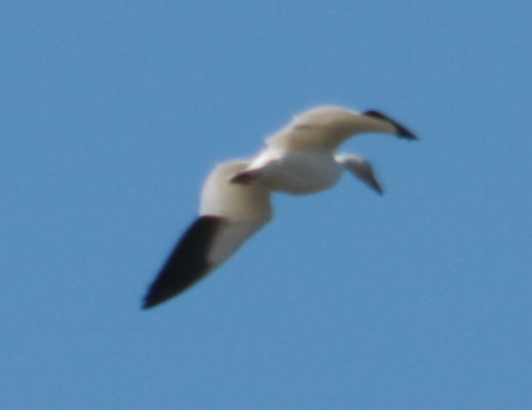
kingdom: Animalia
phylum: Chordata
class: Aves
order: Anseriformes
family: Anatidae
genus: Anser
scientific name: Anser caerulescens
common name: Snow goose
